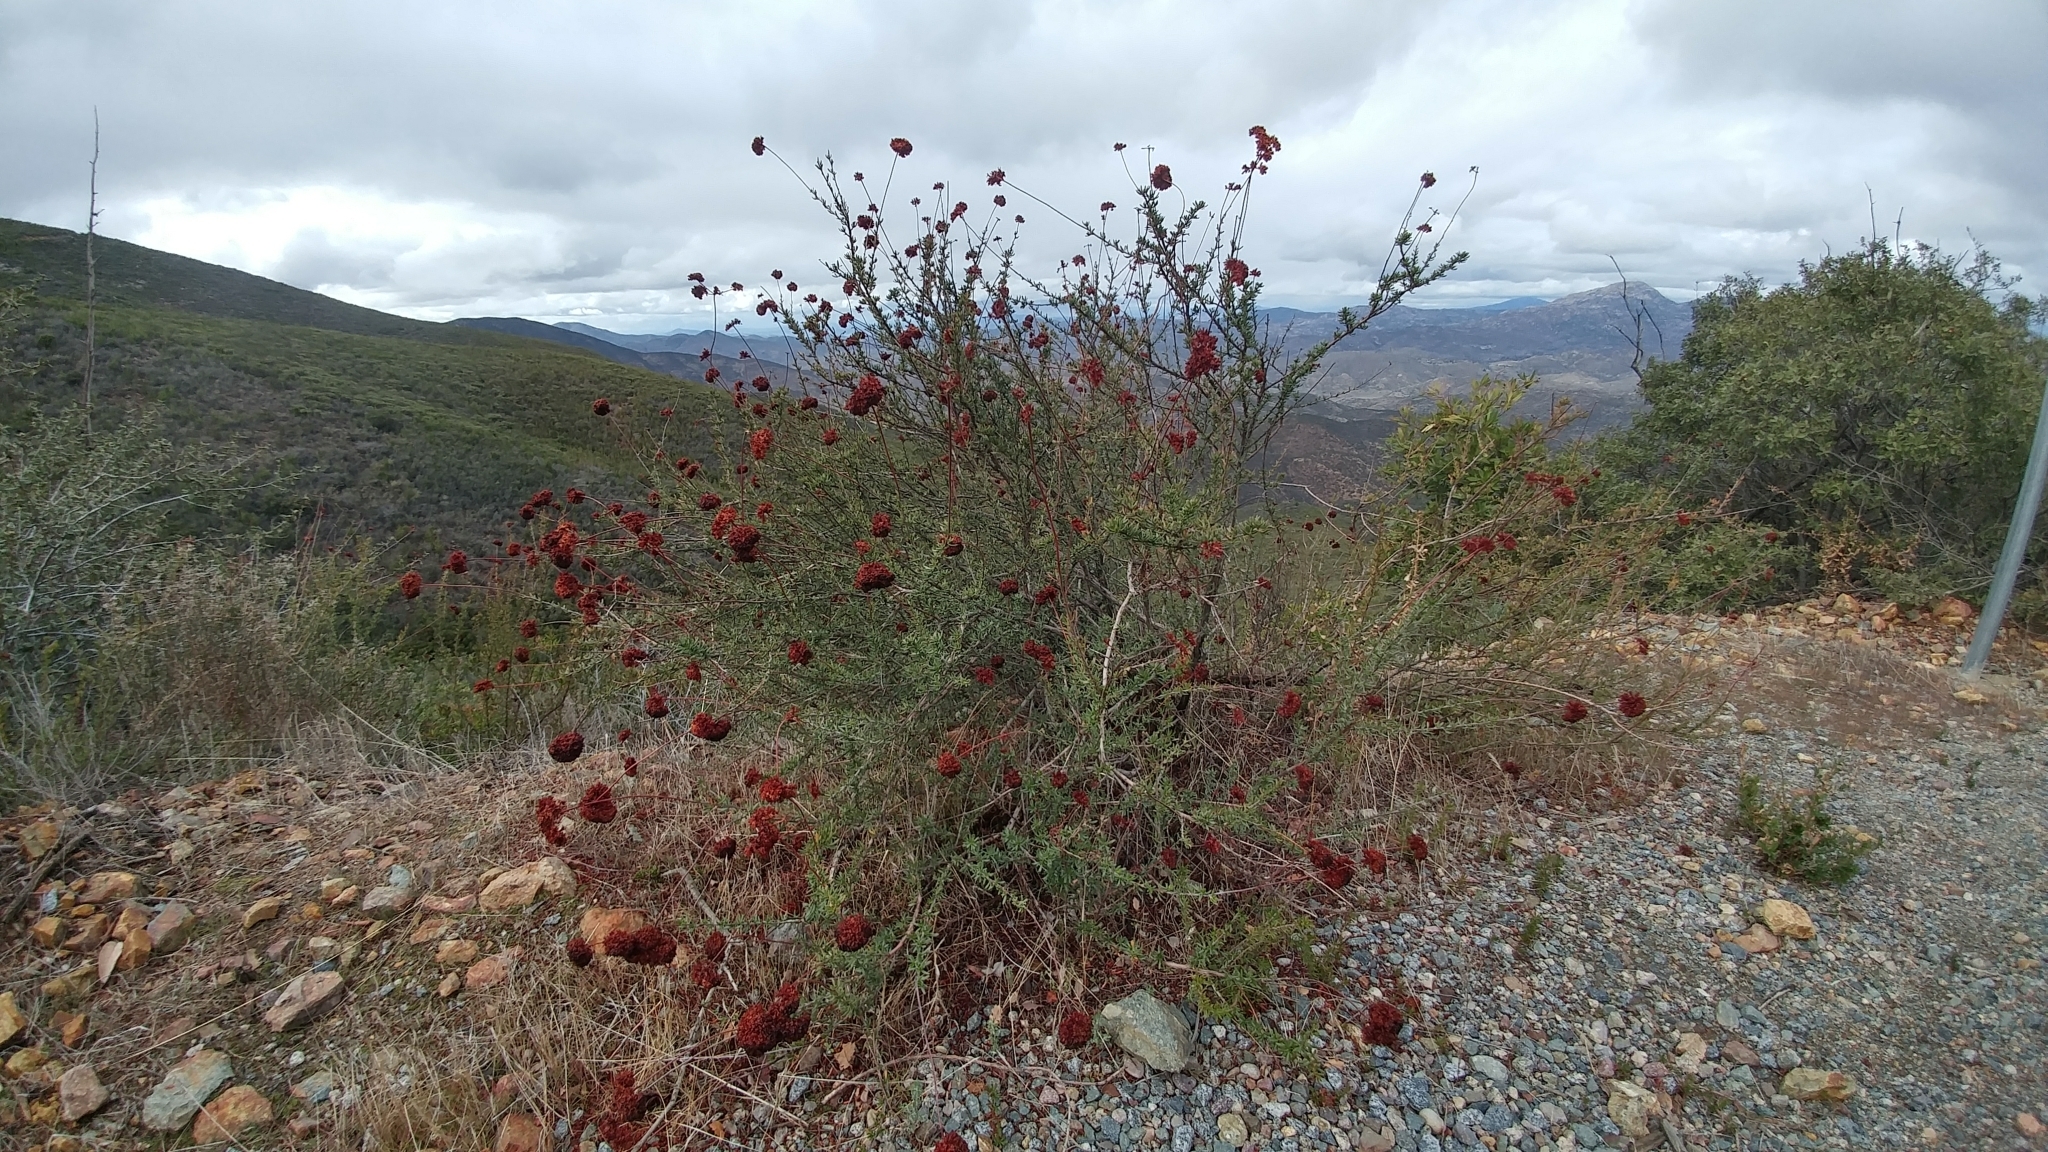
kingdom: Plantae
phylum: Tracheophyta
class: Magnoliopsida
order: Caryophyllales
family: Polygonaceae
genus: Eriogonum
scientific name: Eriogonum fasciculatum
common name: California wild buckwheat
